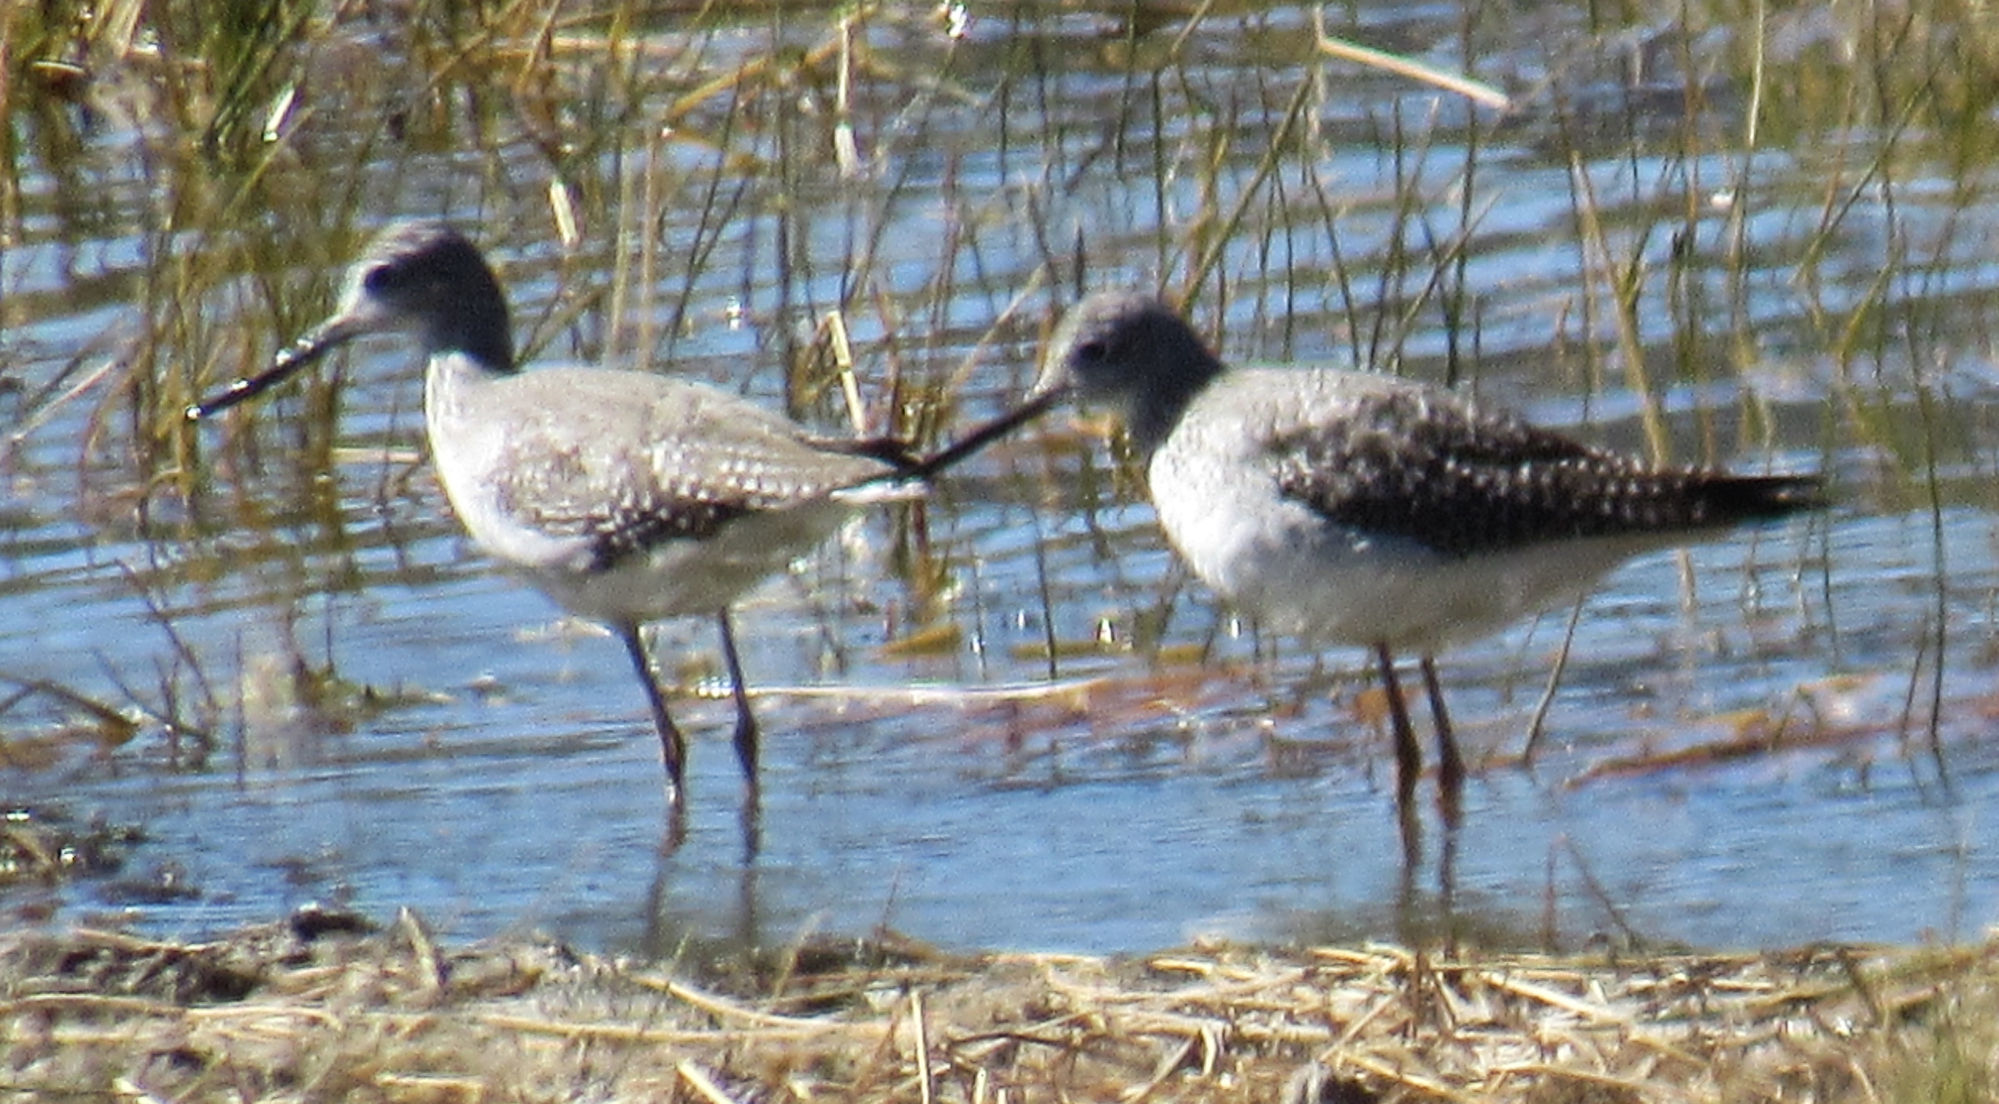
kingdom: Animalia
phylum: Chordata
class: Aves
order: Charadriiformes
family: Scolopacidae
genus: Tringa
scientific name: Tringa melanoleuca
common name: Greater yellowlegs
